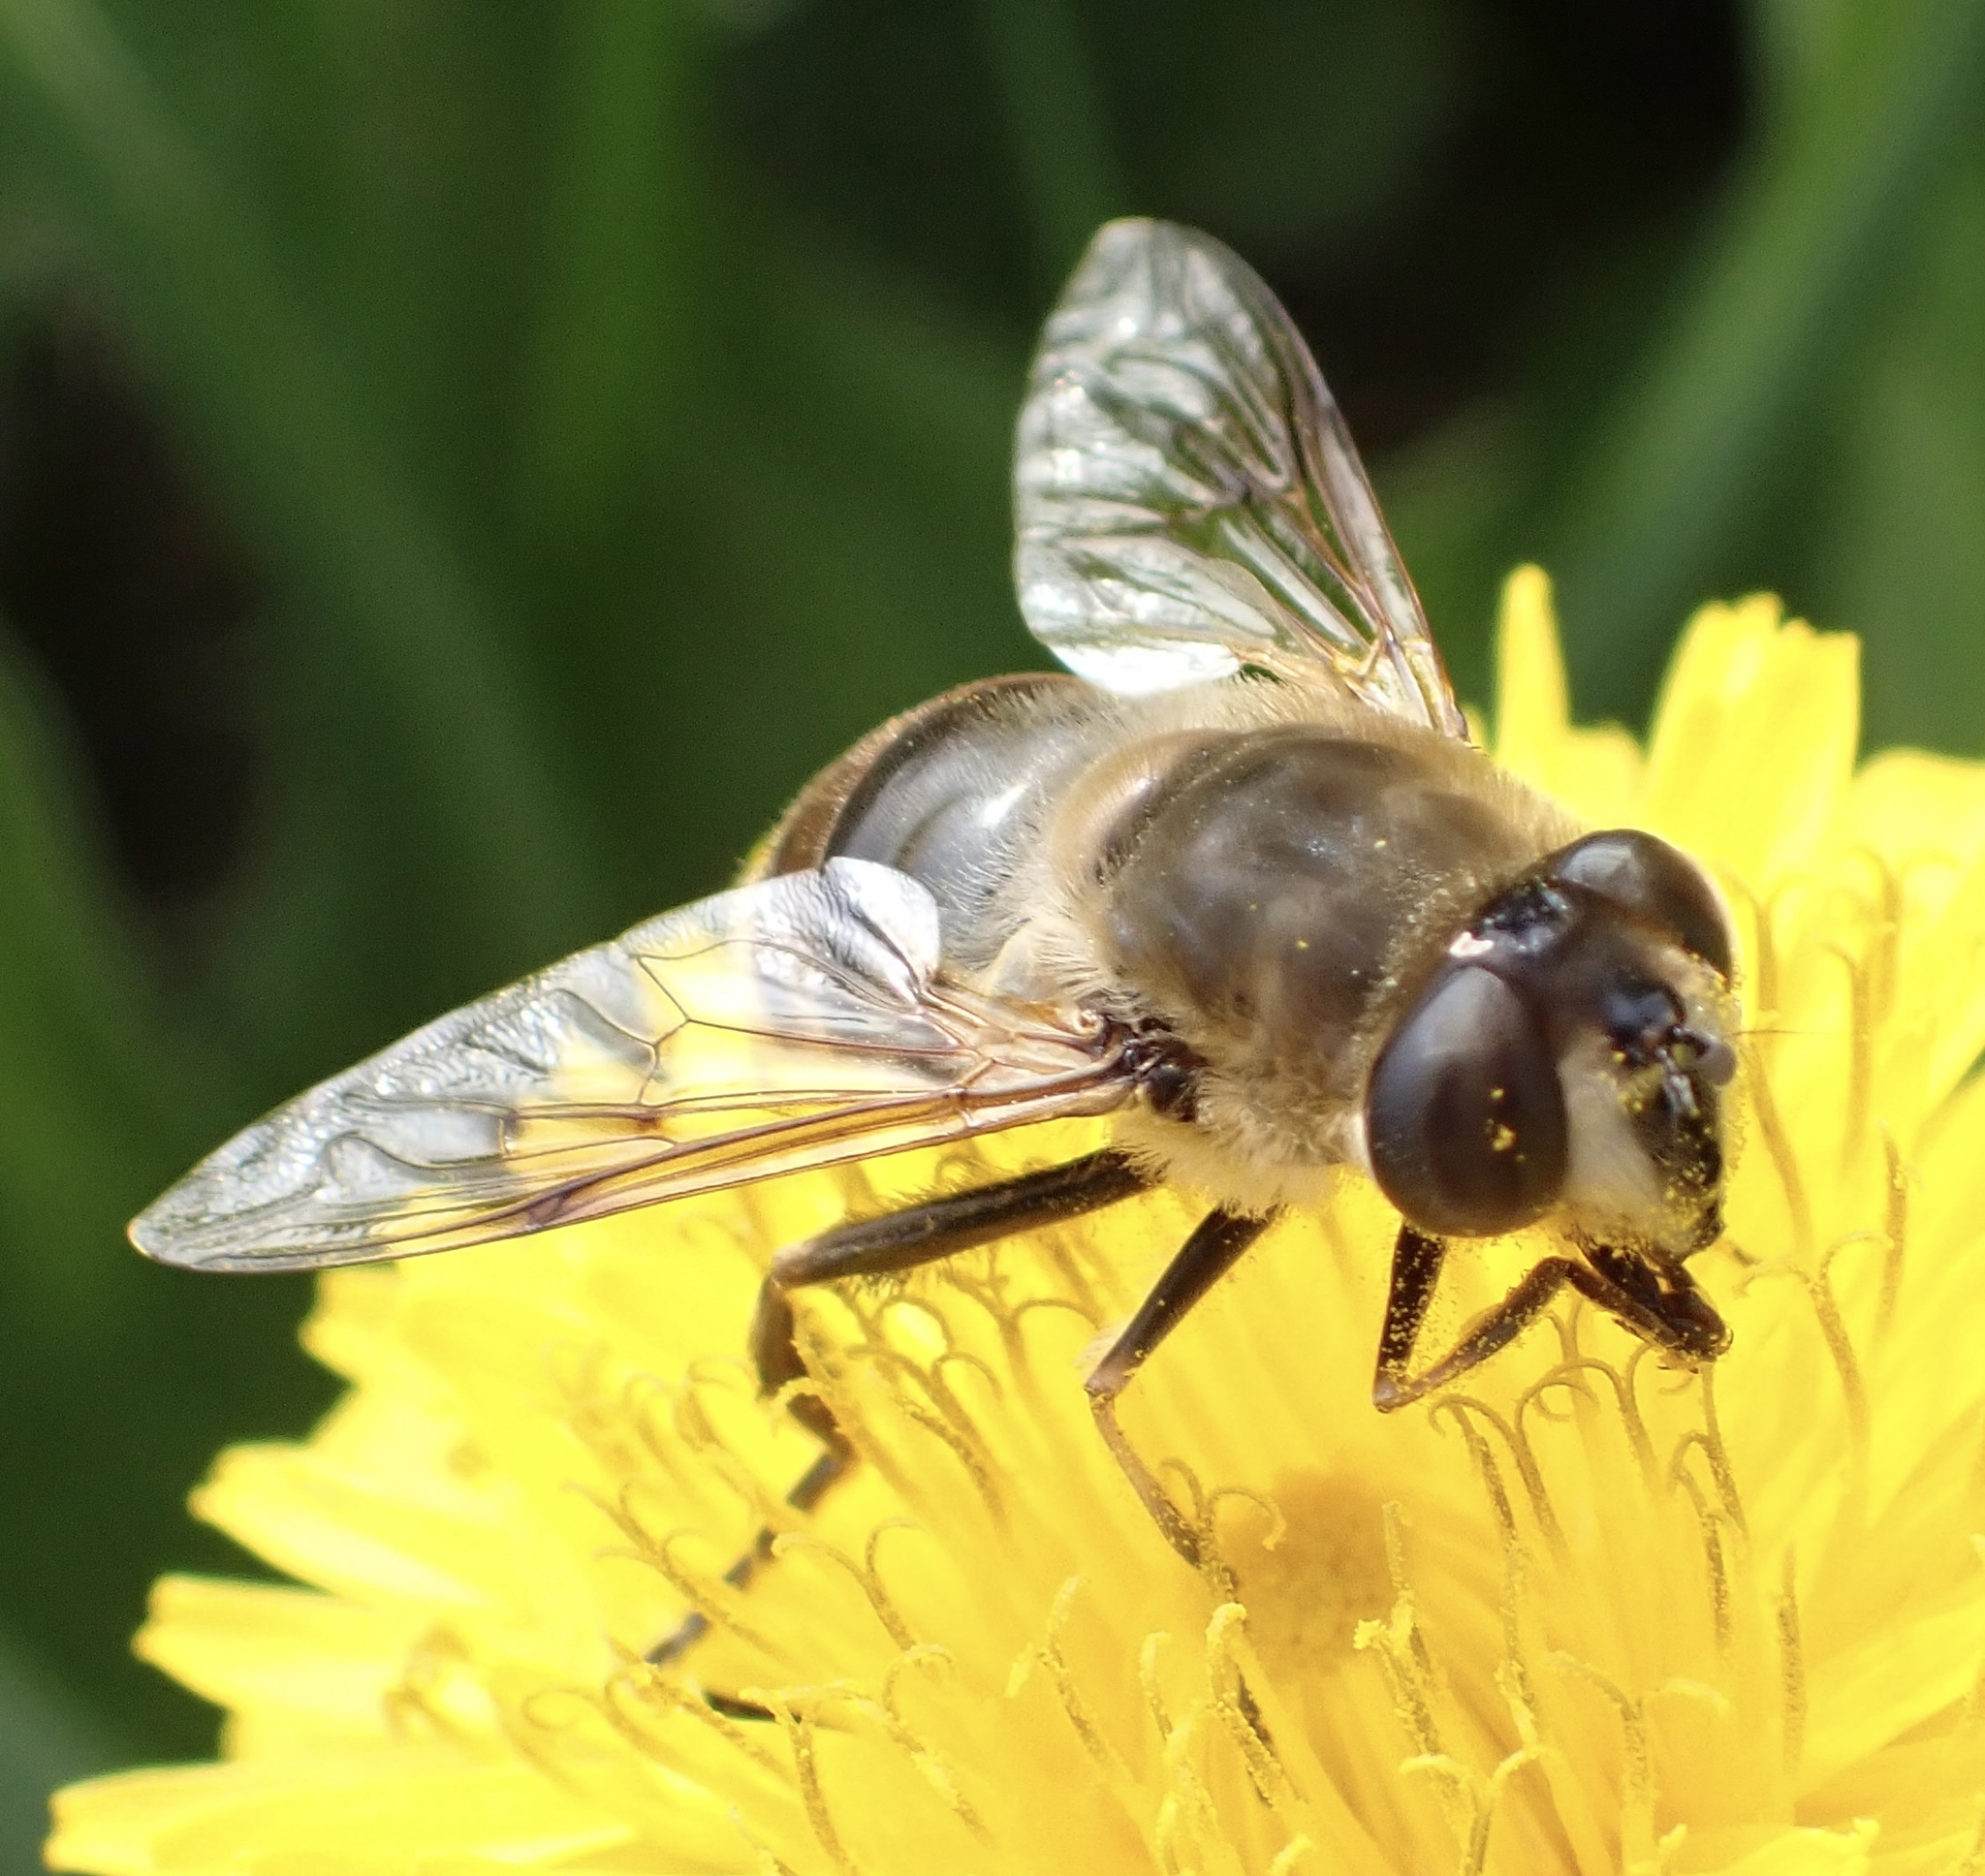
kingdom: Animalia
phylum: Arthropoda
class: Insecta
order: Diptera
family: Syrphidae
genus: Eristalis
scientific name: Eristalis tenax
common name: Drone fly
